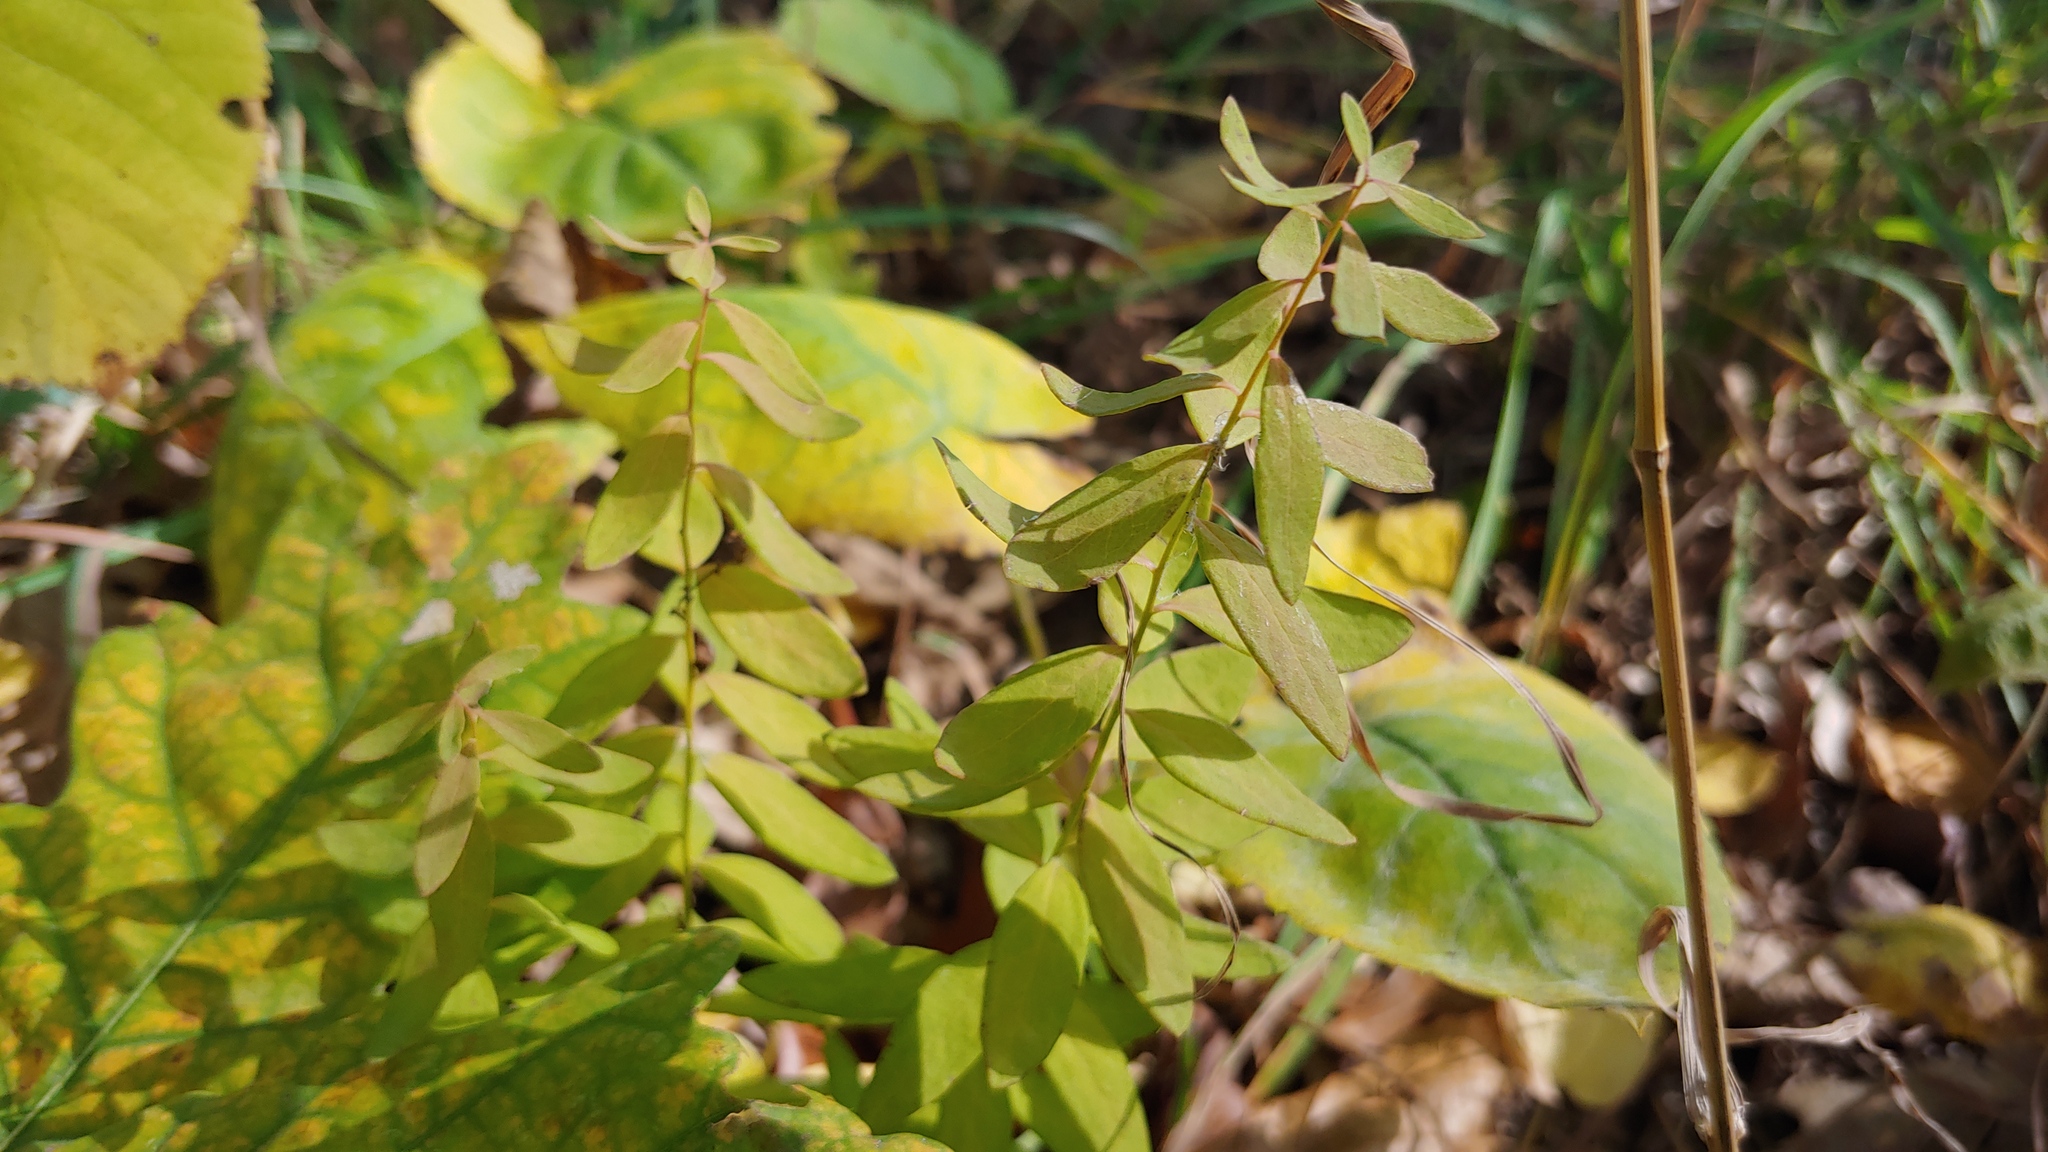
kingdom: Plantae
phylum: Tracheophyta
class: Magnoliopsida
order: Santalales
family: Comandraceae
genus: Comandra
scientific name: Comandra umbellata
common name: Bastard toadflax
